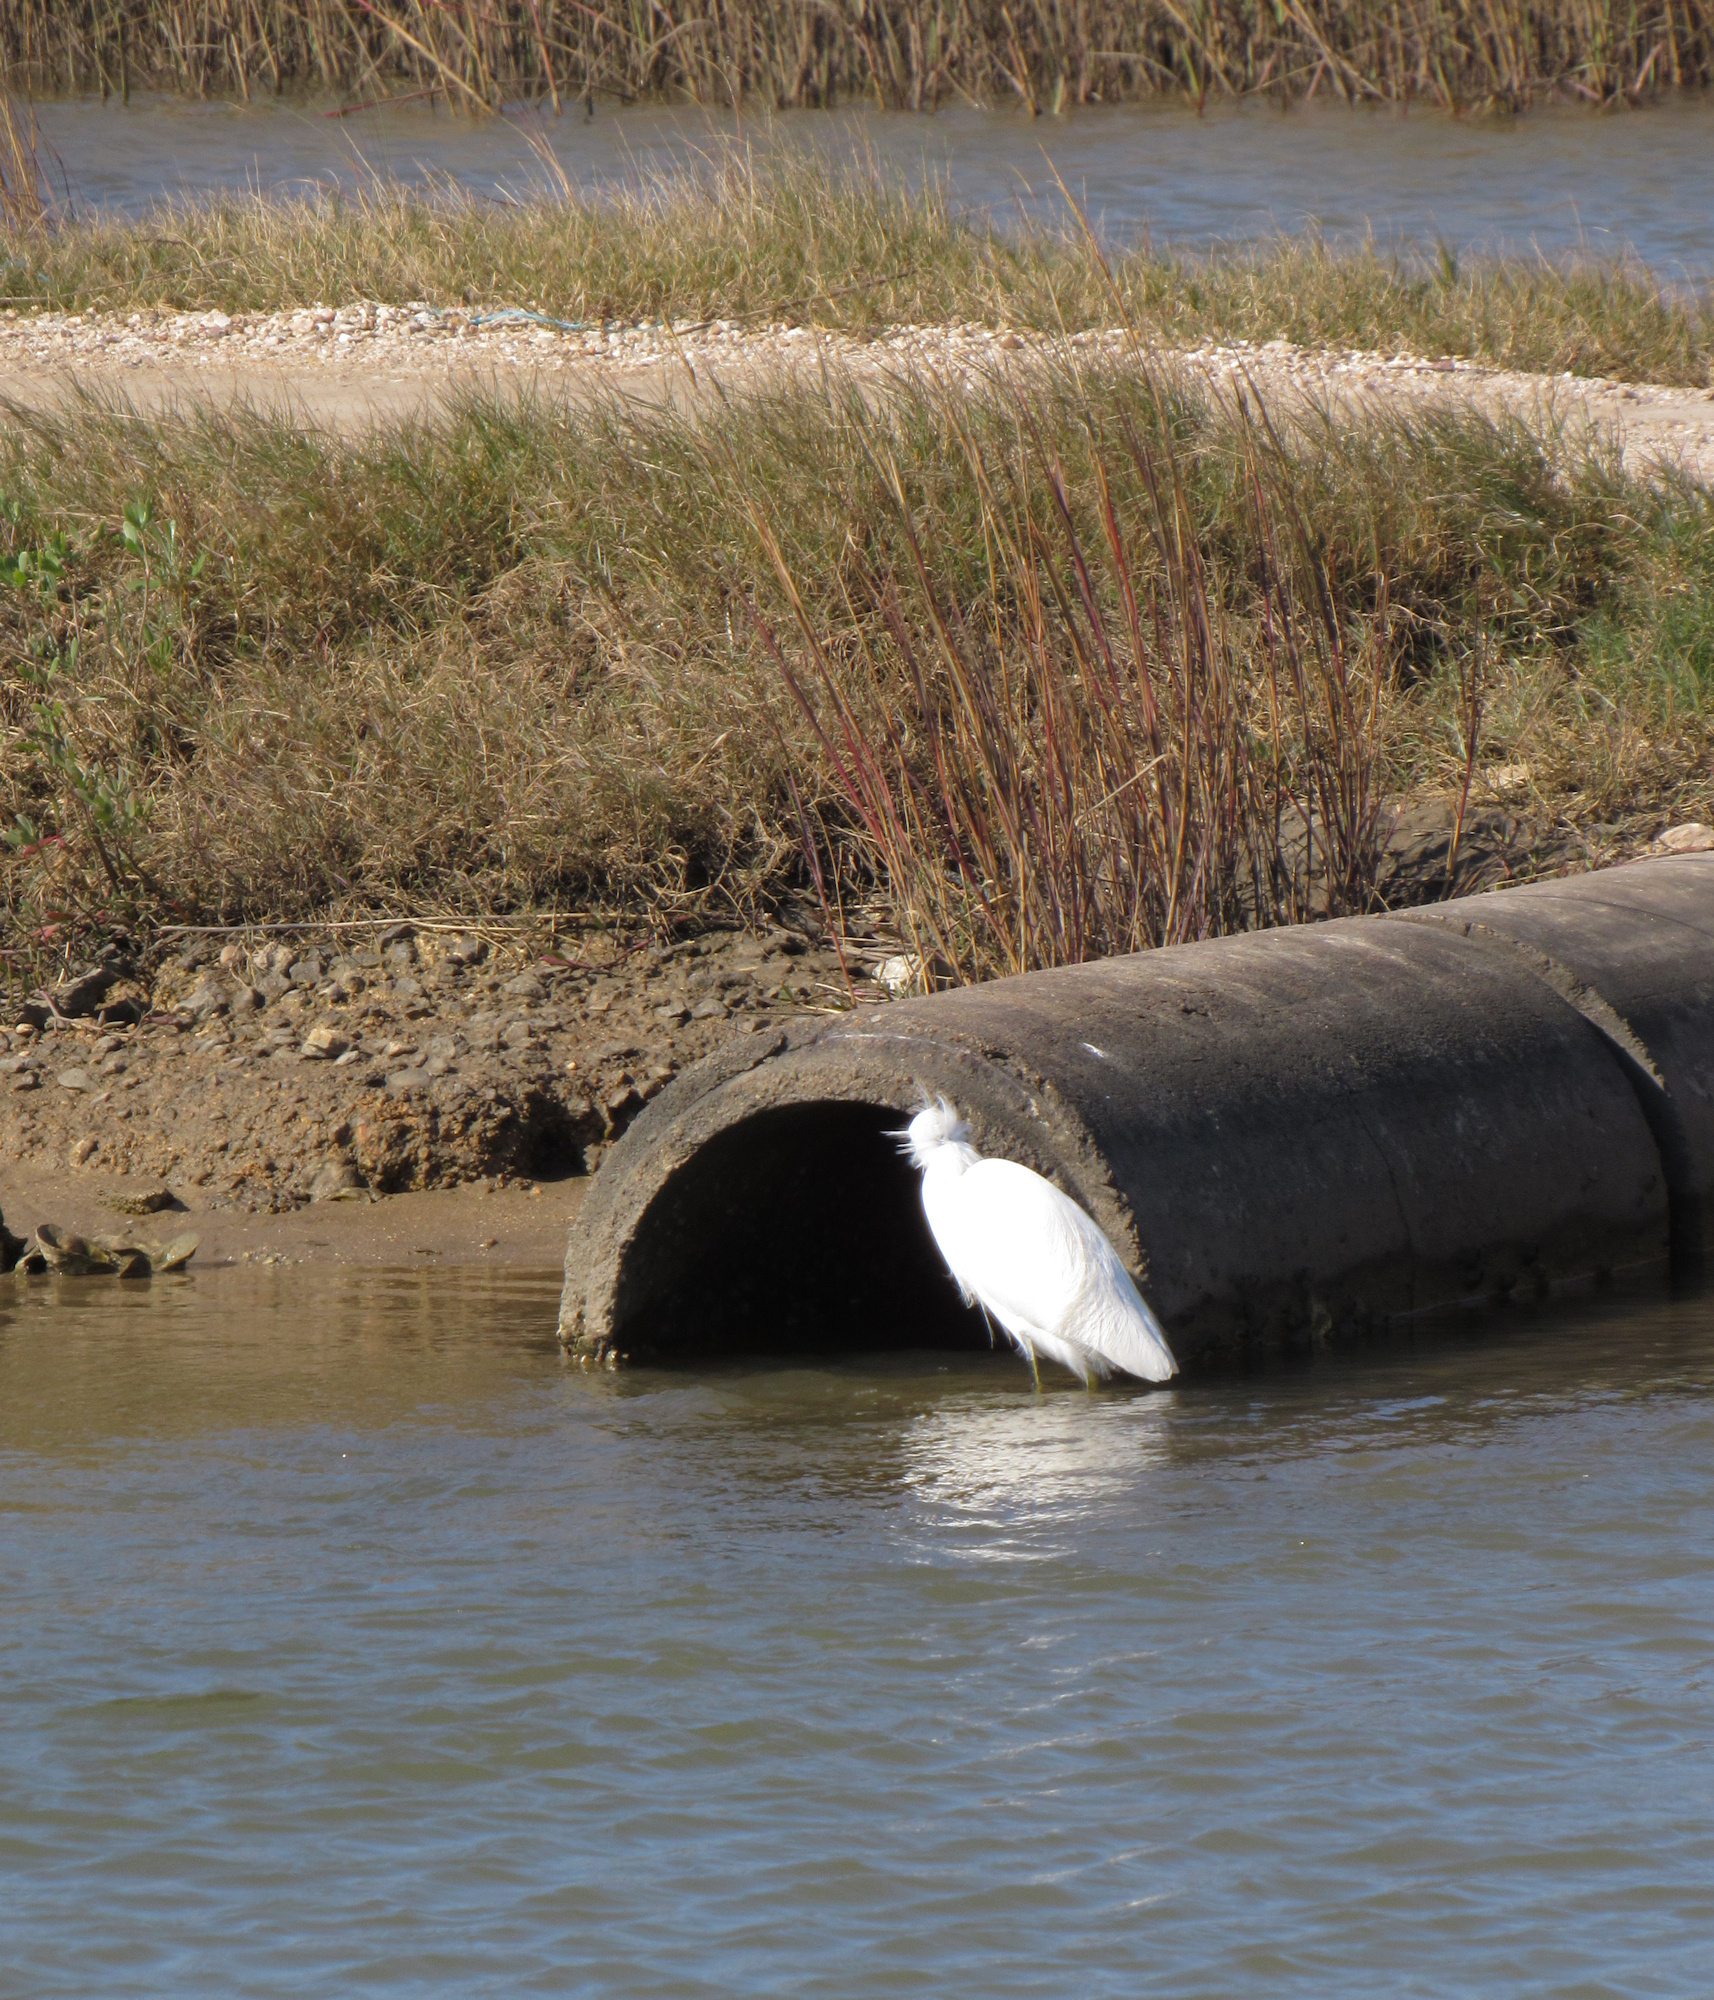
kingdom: Animalia
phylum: Chordata
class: Aves
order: Pelecaniformes
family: Ardeidae
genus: Egretta
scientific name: Egretta thula
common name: Snowy egret
